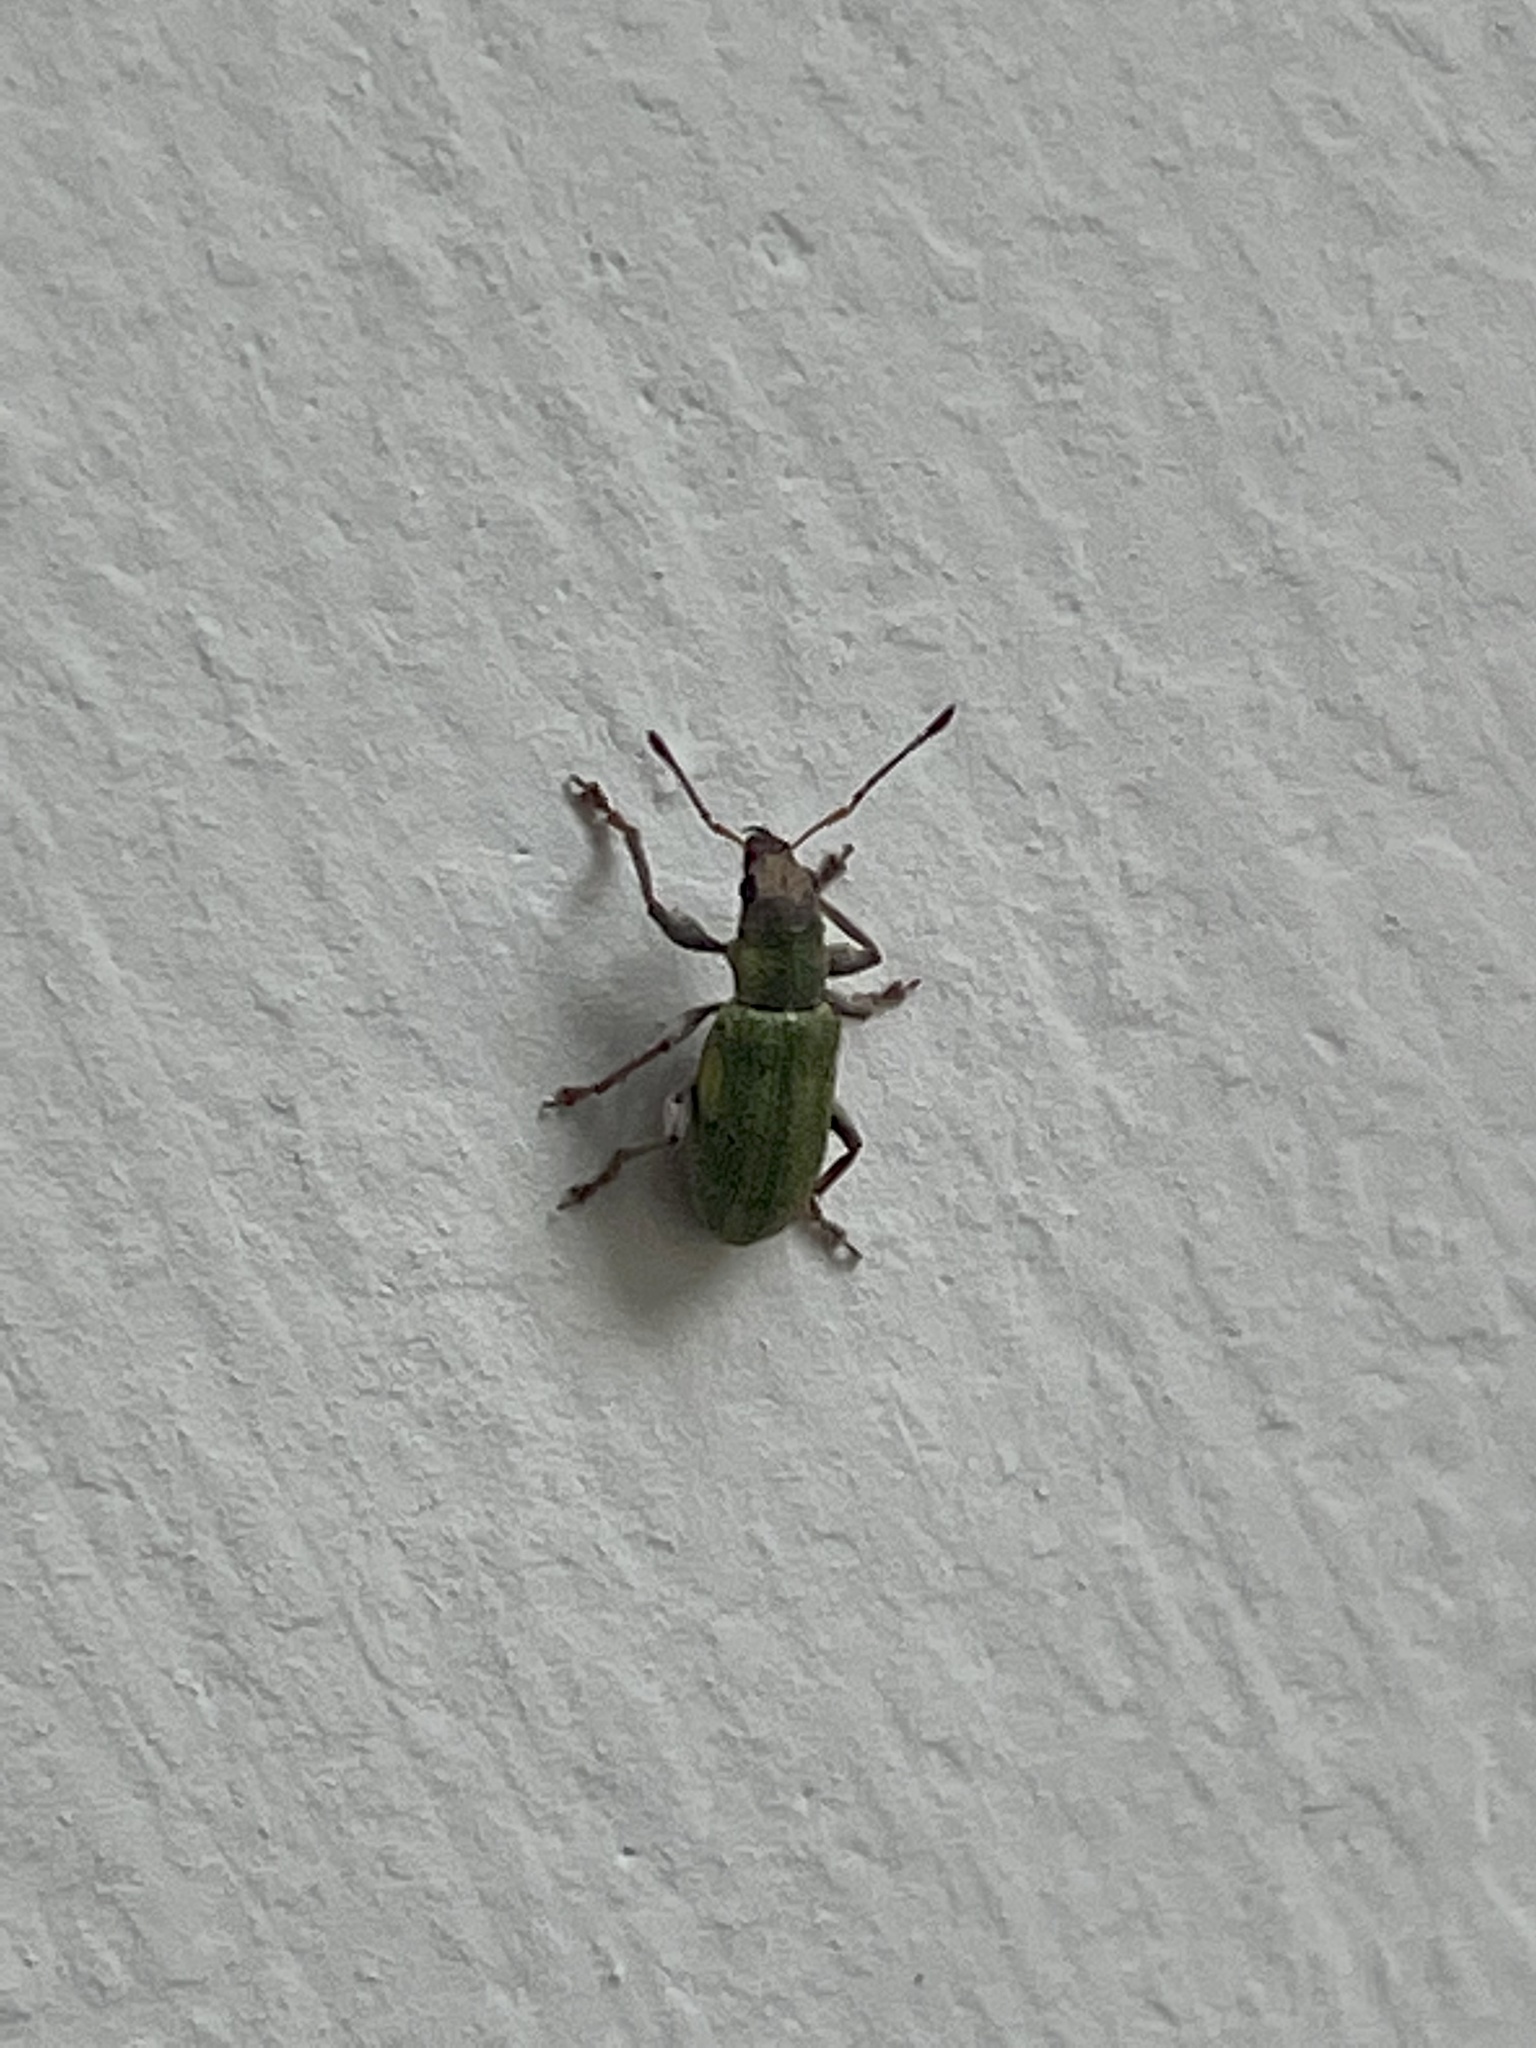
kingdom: Animalia
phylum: Arthropoda
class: Insecta
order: Coleoptera
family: Curculionidae
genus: Pachyrhinus
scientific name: Pachyrhinus lethierryi
